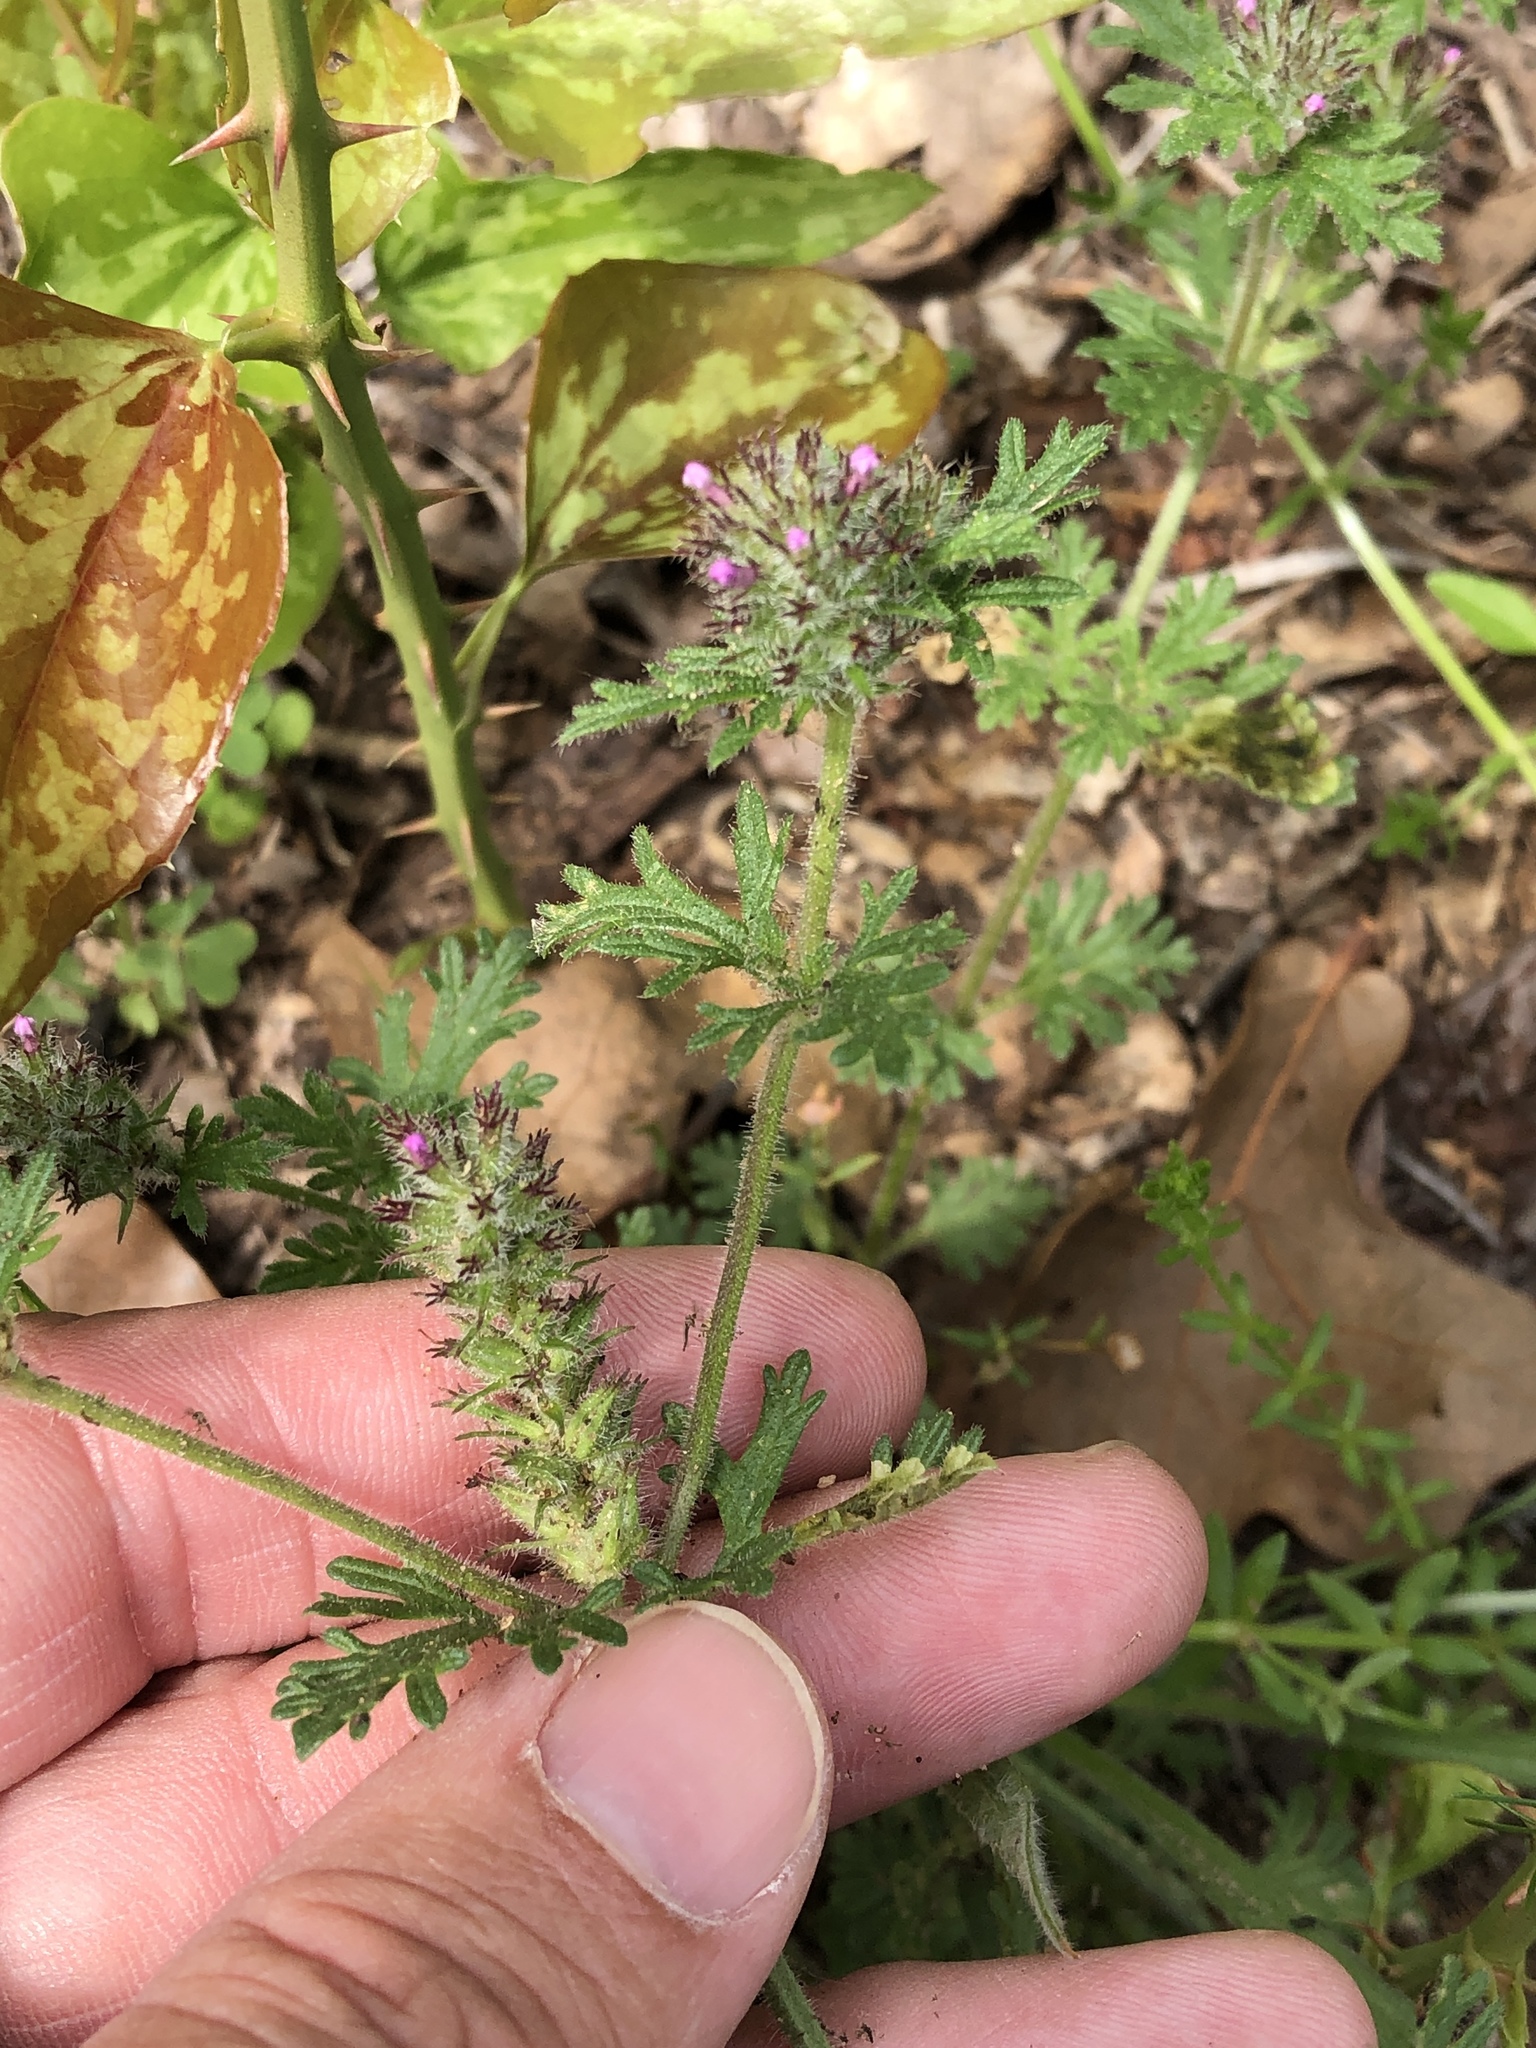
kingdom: Plantae
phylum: Tracheophyta
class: Magnoliopsida
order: Lamiales
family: Verbenaceae
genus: Verbena
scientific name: Verbena pumila
